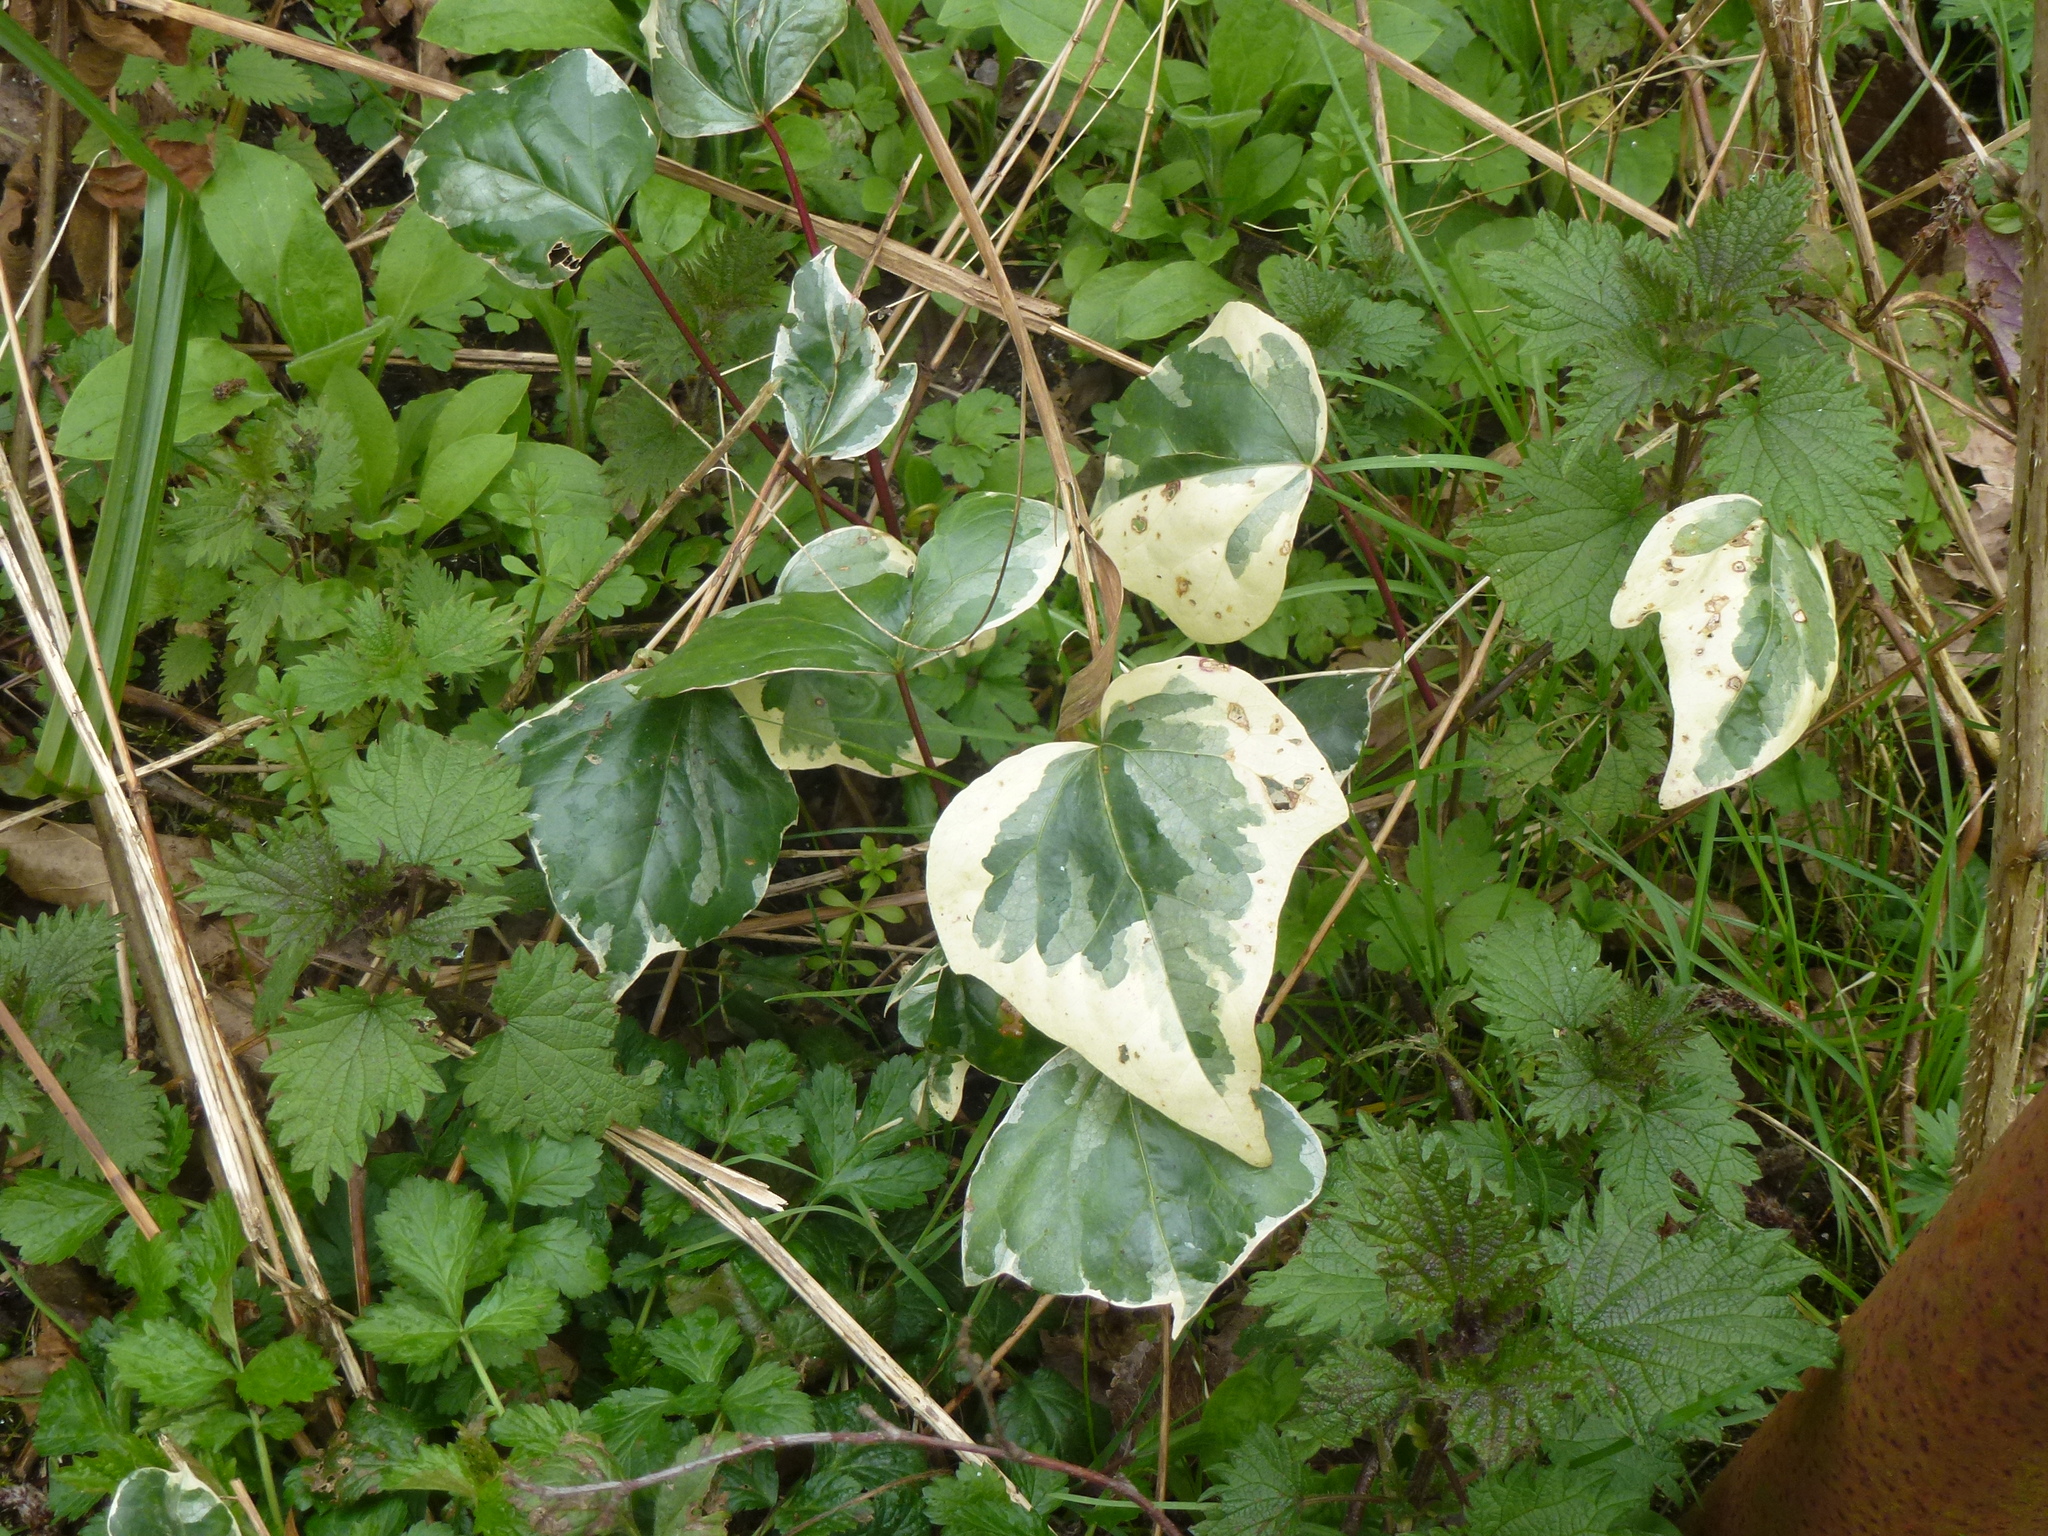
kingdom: Plantae
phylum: Tracheophyta
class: Magnoliopsida
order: Apiales
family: Araliaceae
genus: Hedera
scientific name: Hedera colchica
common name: Persian ivy
